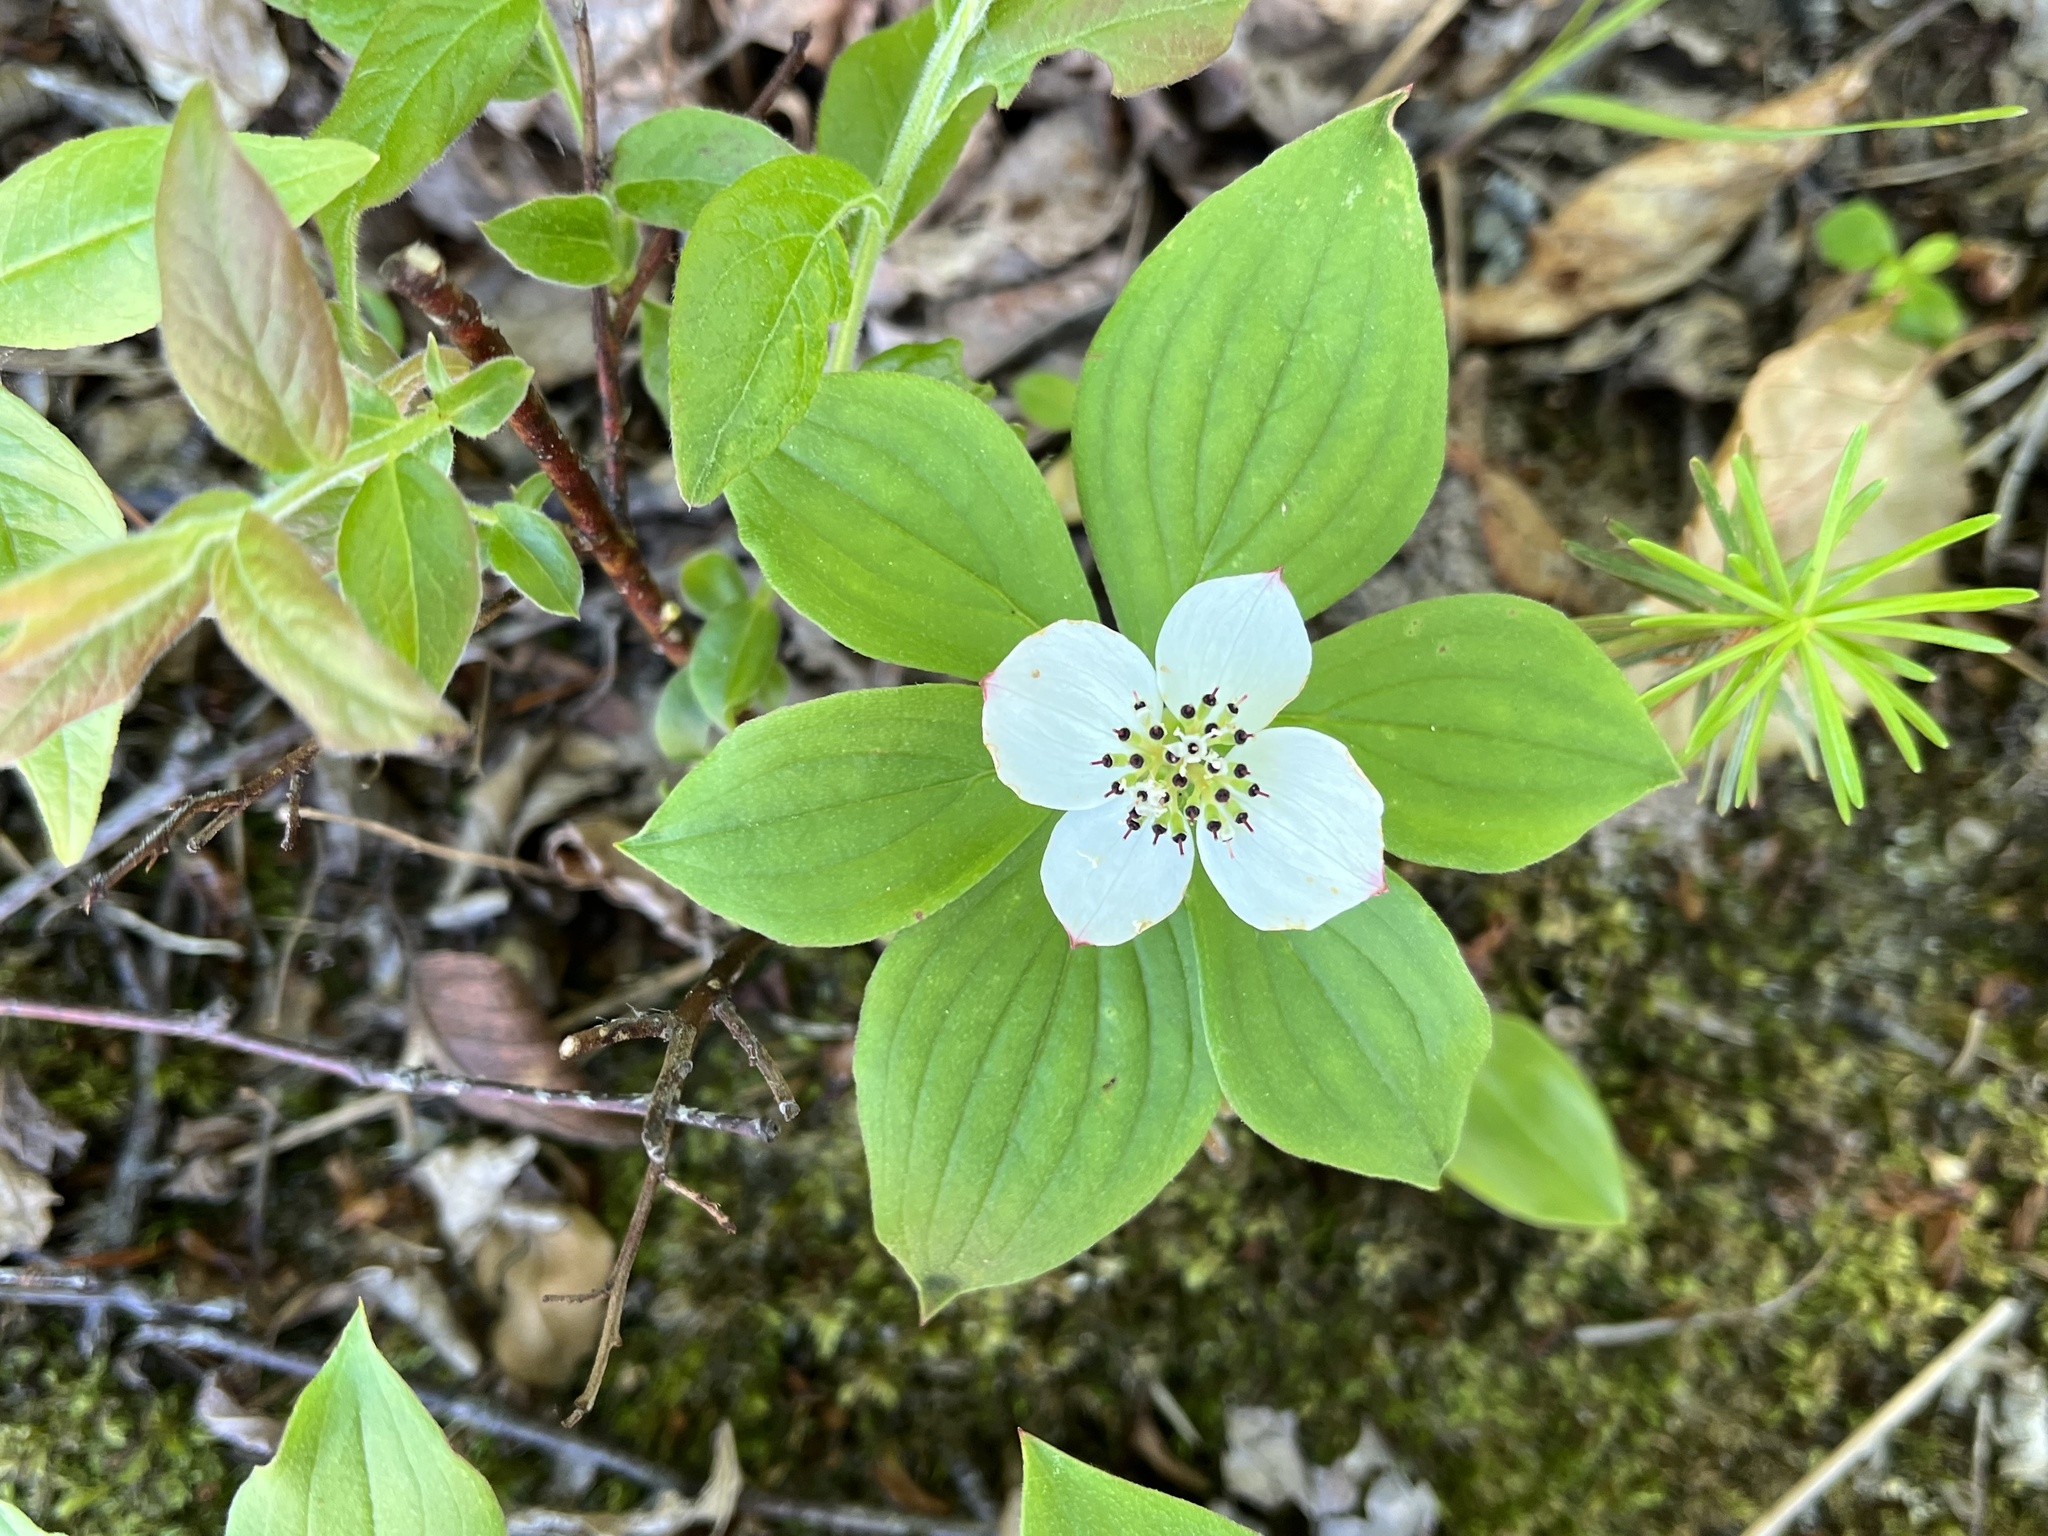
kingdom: Plantae
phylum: Tracheophyta
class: Magnoliopsida
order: Cornales
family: Cornaceae
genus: Cornus
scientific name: Cornus canadensis
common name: Creeping dogwood
